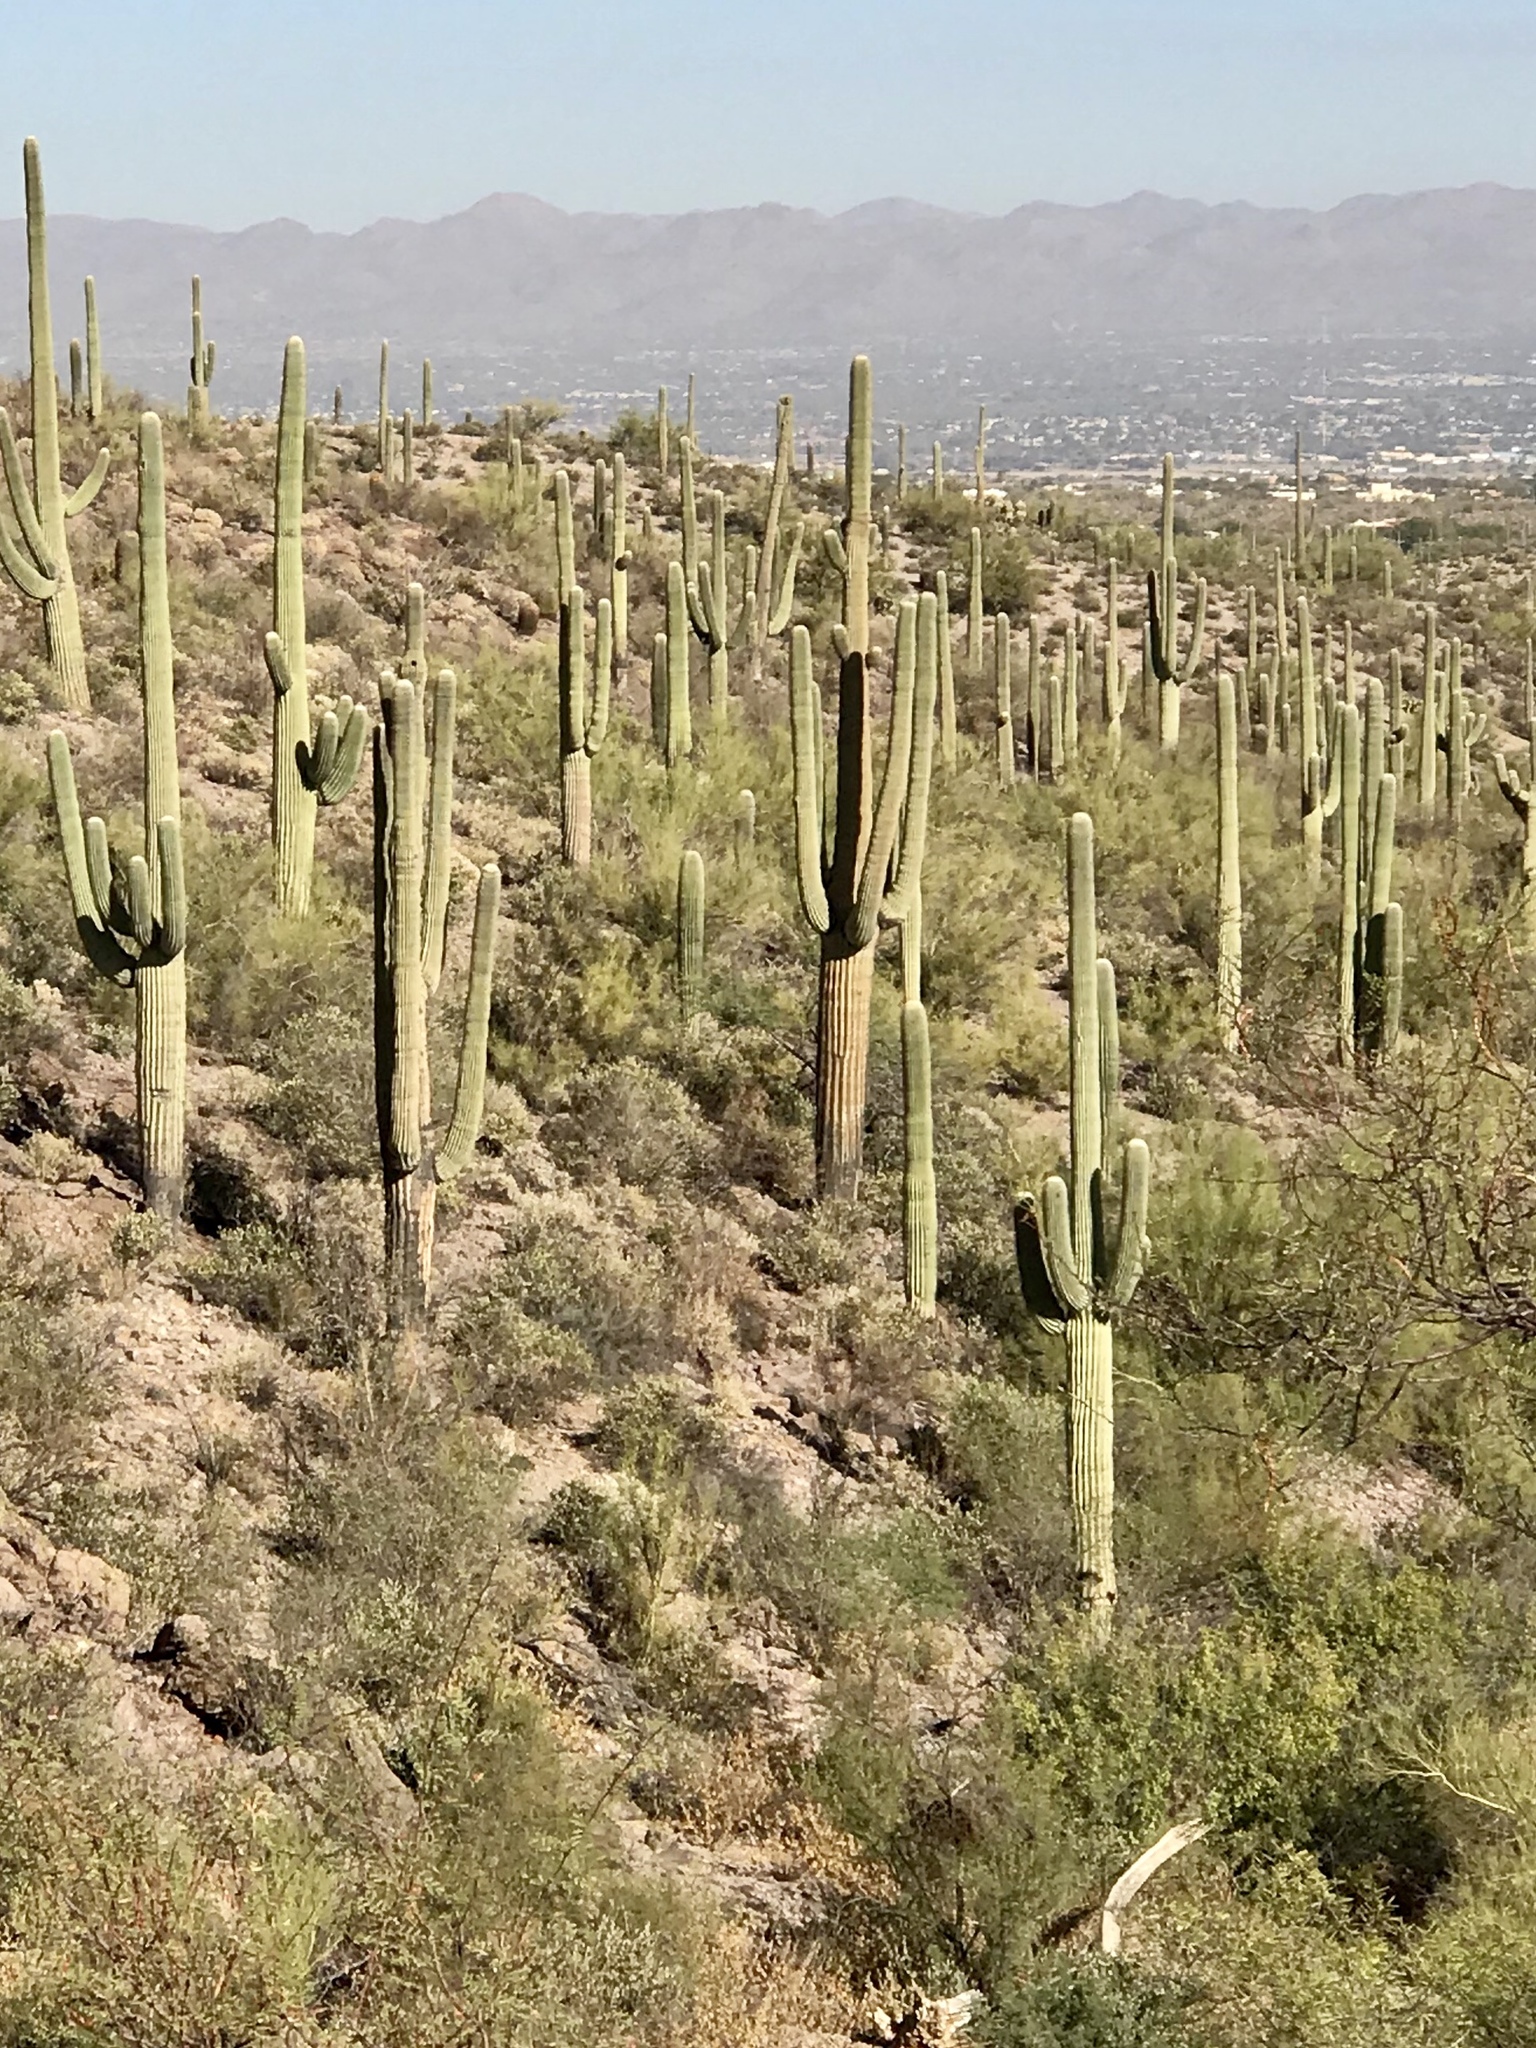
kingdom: Plantae
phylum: Tracheophyta
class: Magnoliopsida
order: Caryophyllales
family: Cactaceae
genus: Carnegiea
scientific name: Carnegiea gigantea
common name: Saguaro
